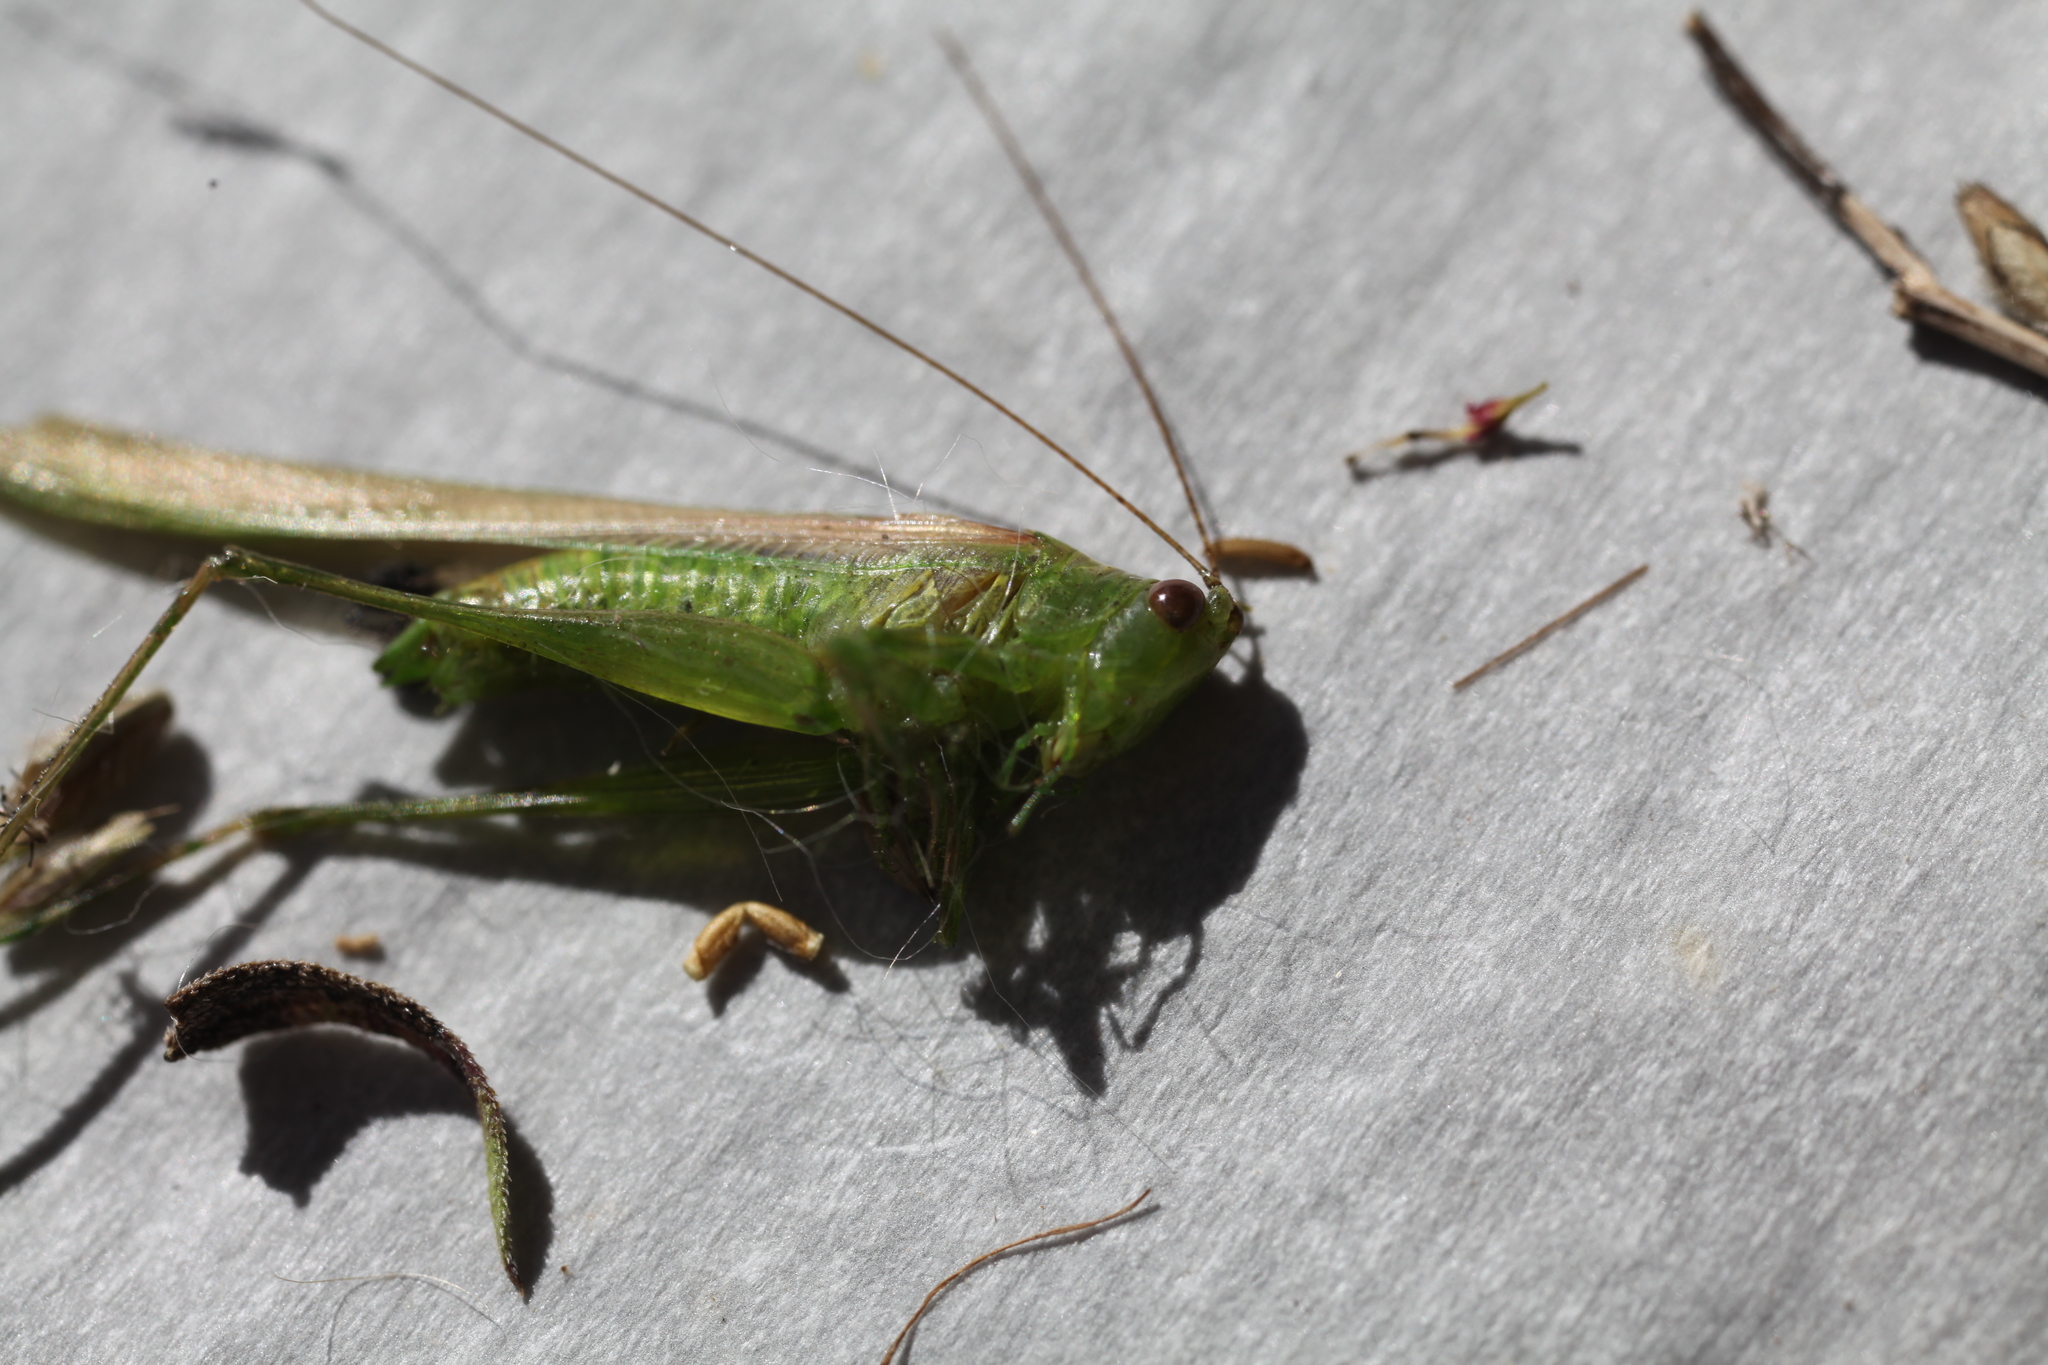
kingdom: Animalia
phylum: Arthropoda
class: Insecta
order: Orthoptera
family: Tettigoniidae
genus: Conocephalus
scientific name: Conocephalus fasciatus
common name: Slender meadow katydid
